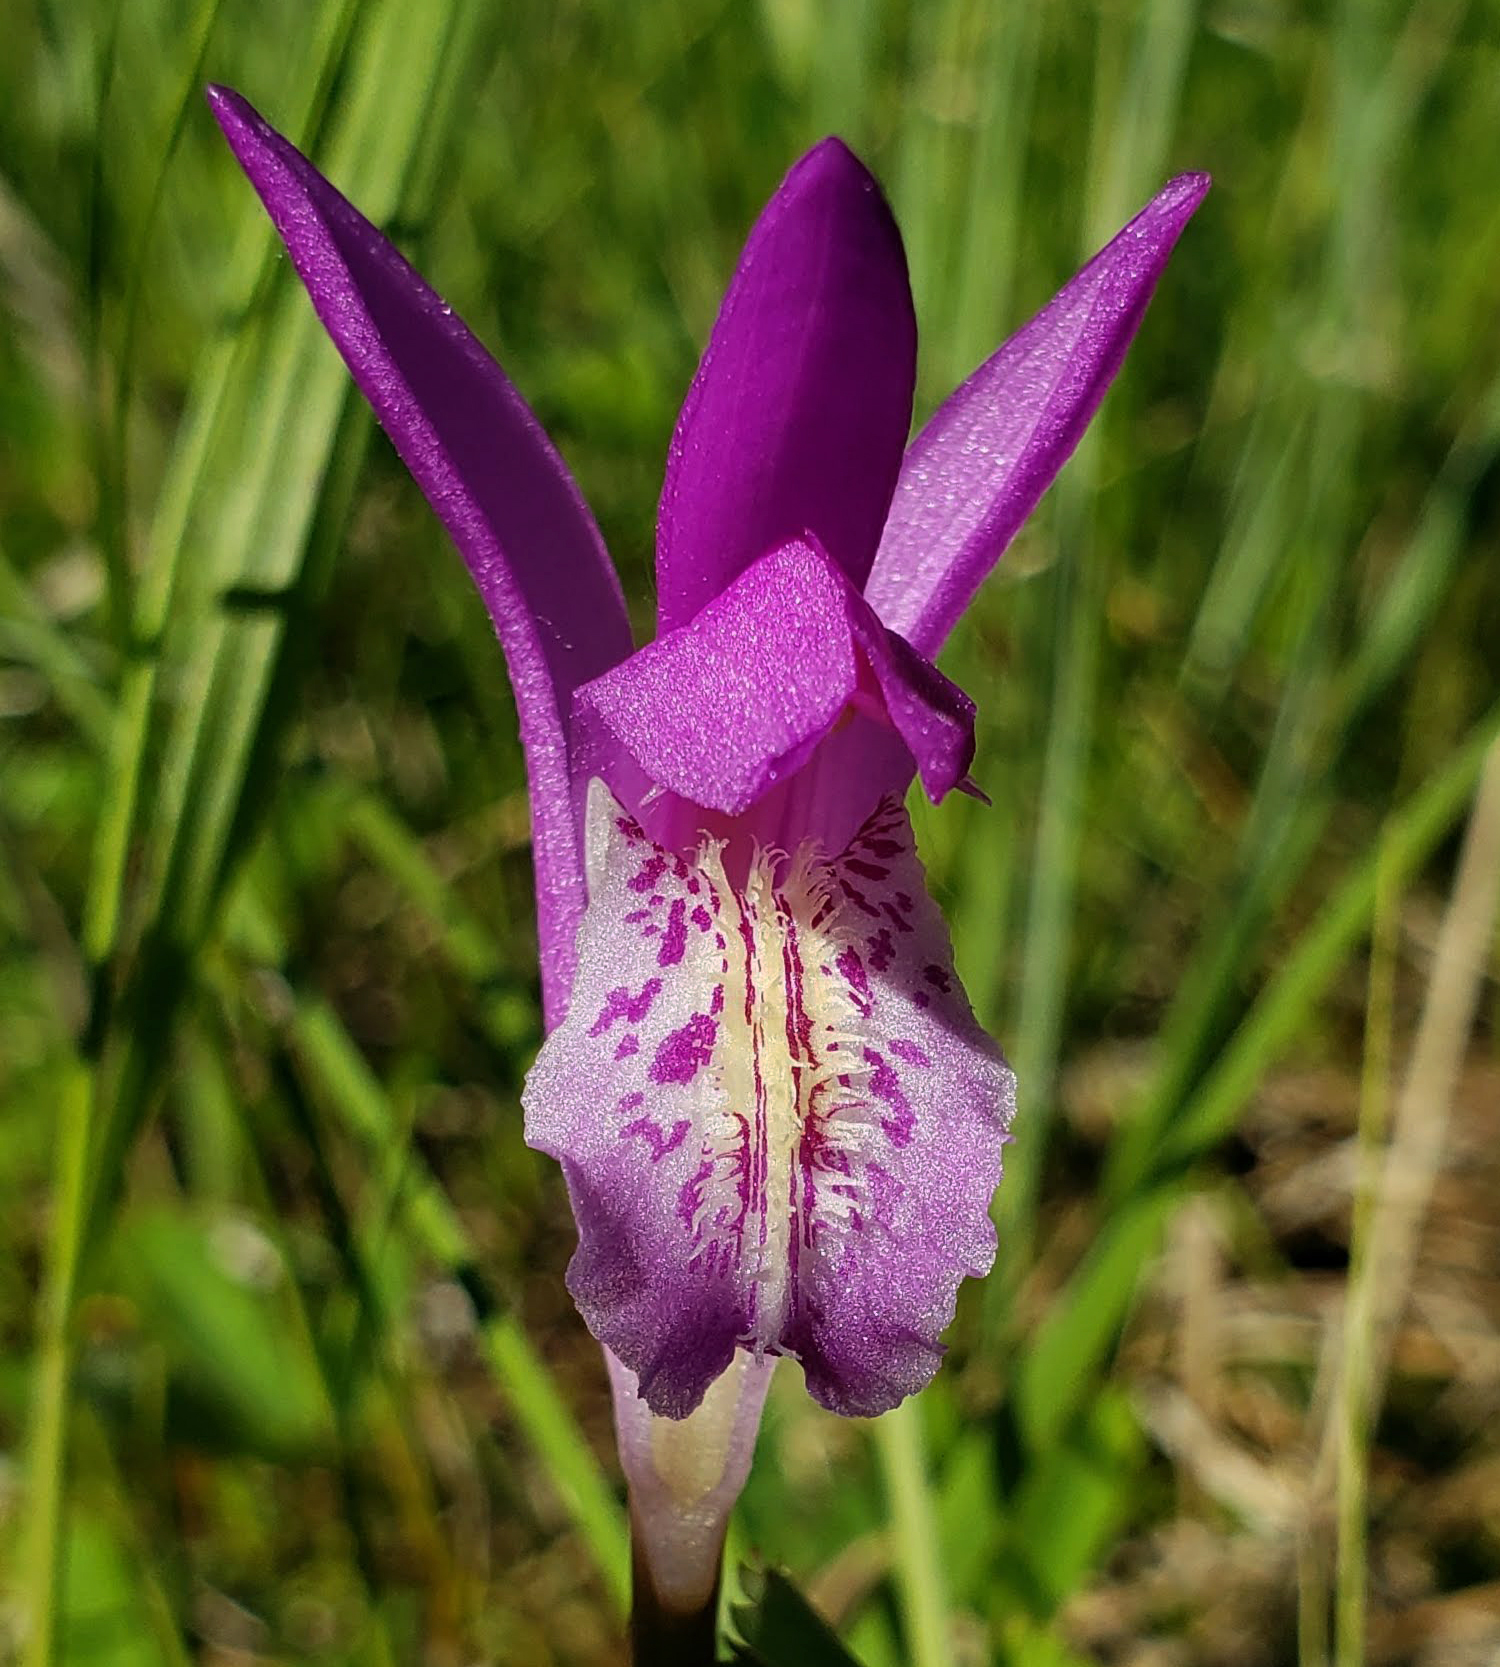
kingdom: Plantae
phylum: Tracheophyta
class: Liliopsida
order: Asparagales
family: Orchidaceae
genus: Arethusa
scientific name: Arethusa bulbosa
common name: Arethusa
